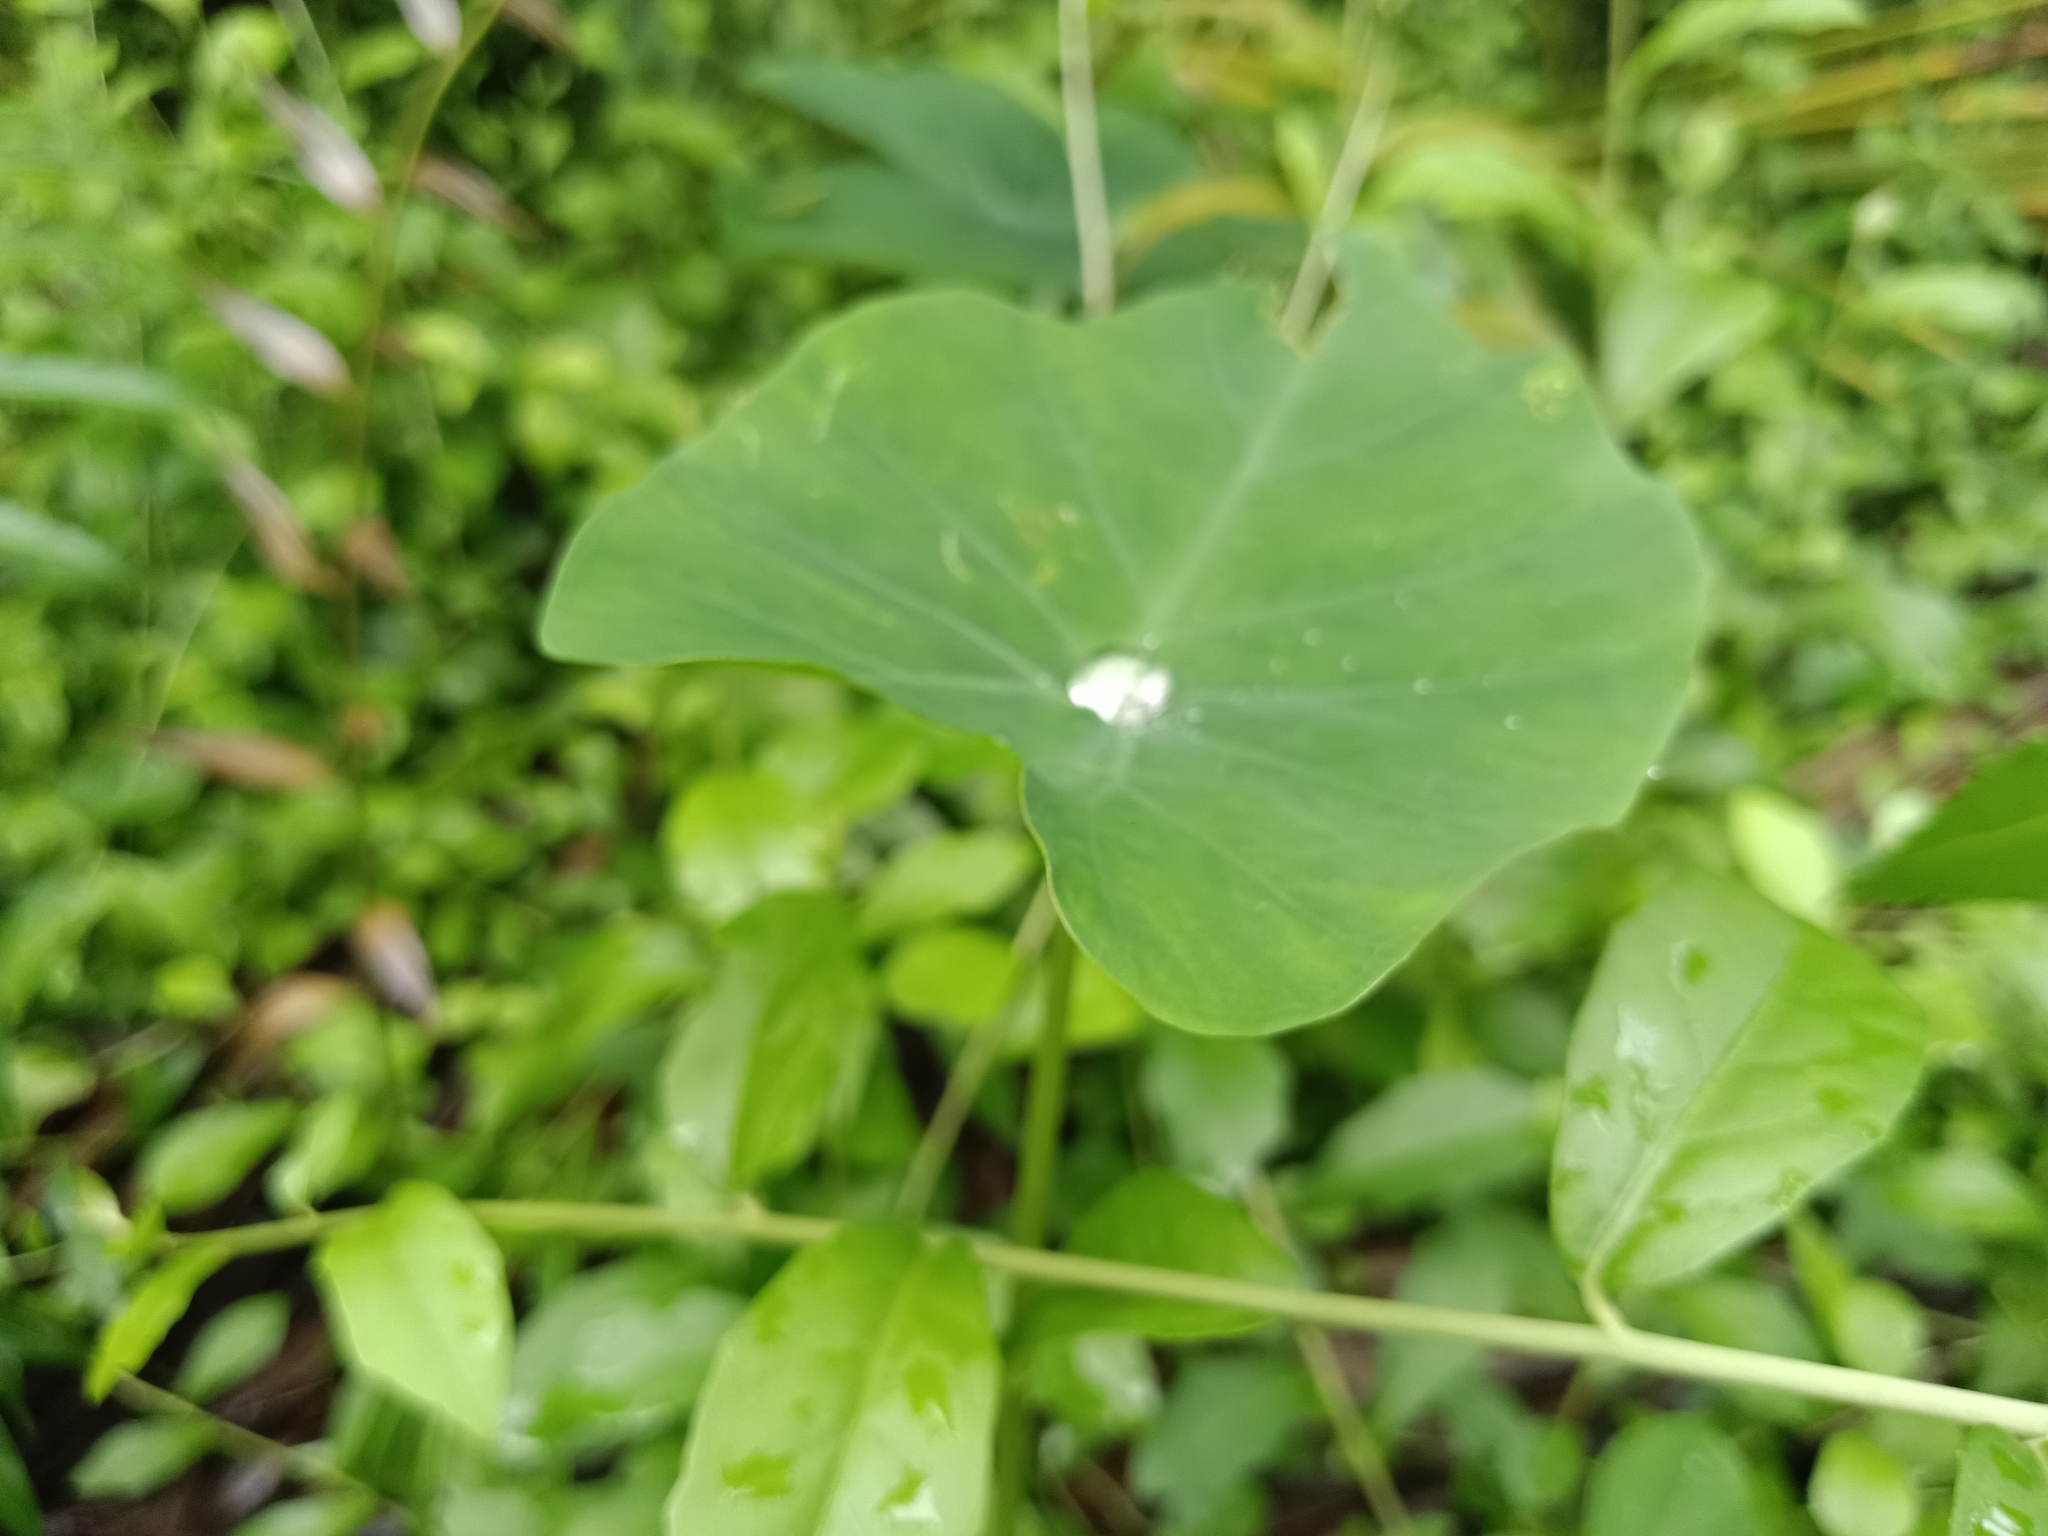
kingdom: Plantae
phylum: Tracheophyta
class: Liliopsida
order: Alismatales
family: Araceae
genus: Colocasia
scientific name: Colocasia esculenta
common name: Taro
